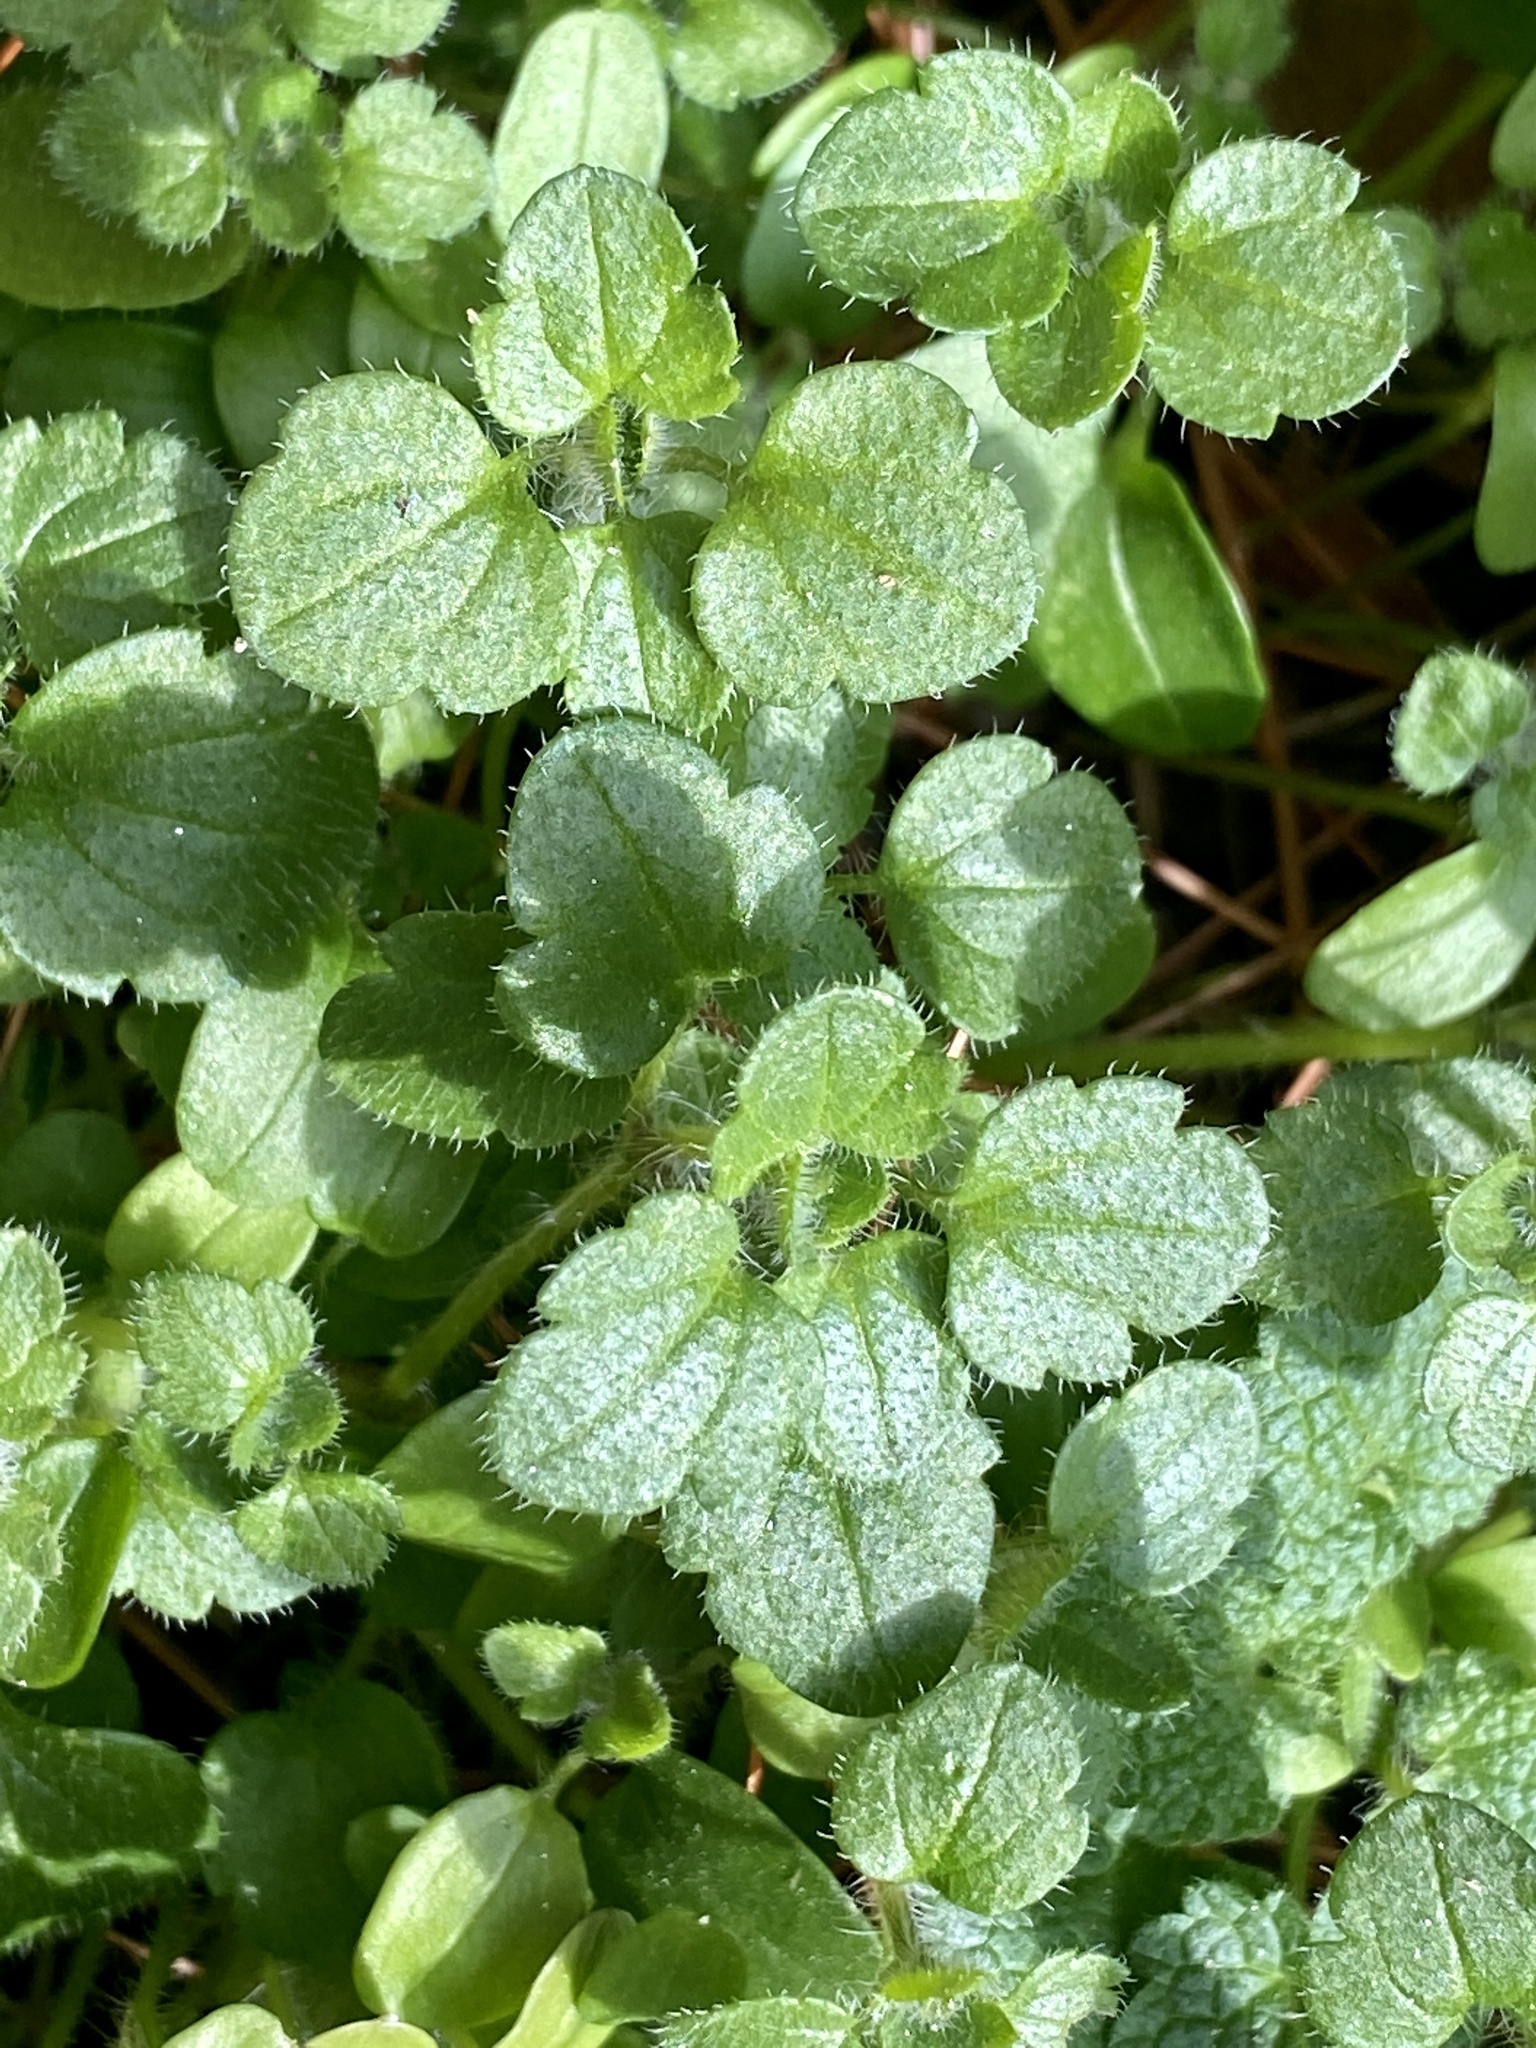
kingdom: Plantae
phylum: Tracheophyta
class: Magnoliopsida
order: Lamiales
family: Plantaginaceae
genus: Veronica
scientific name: Veronica hederifolia
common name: Ivy-leaved speedwell
